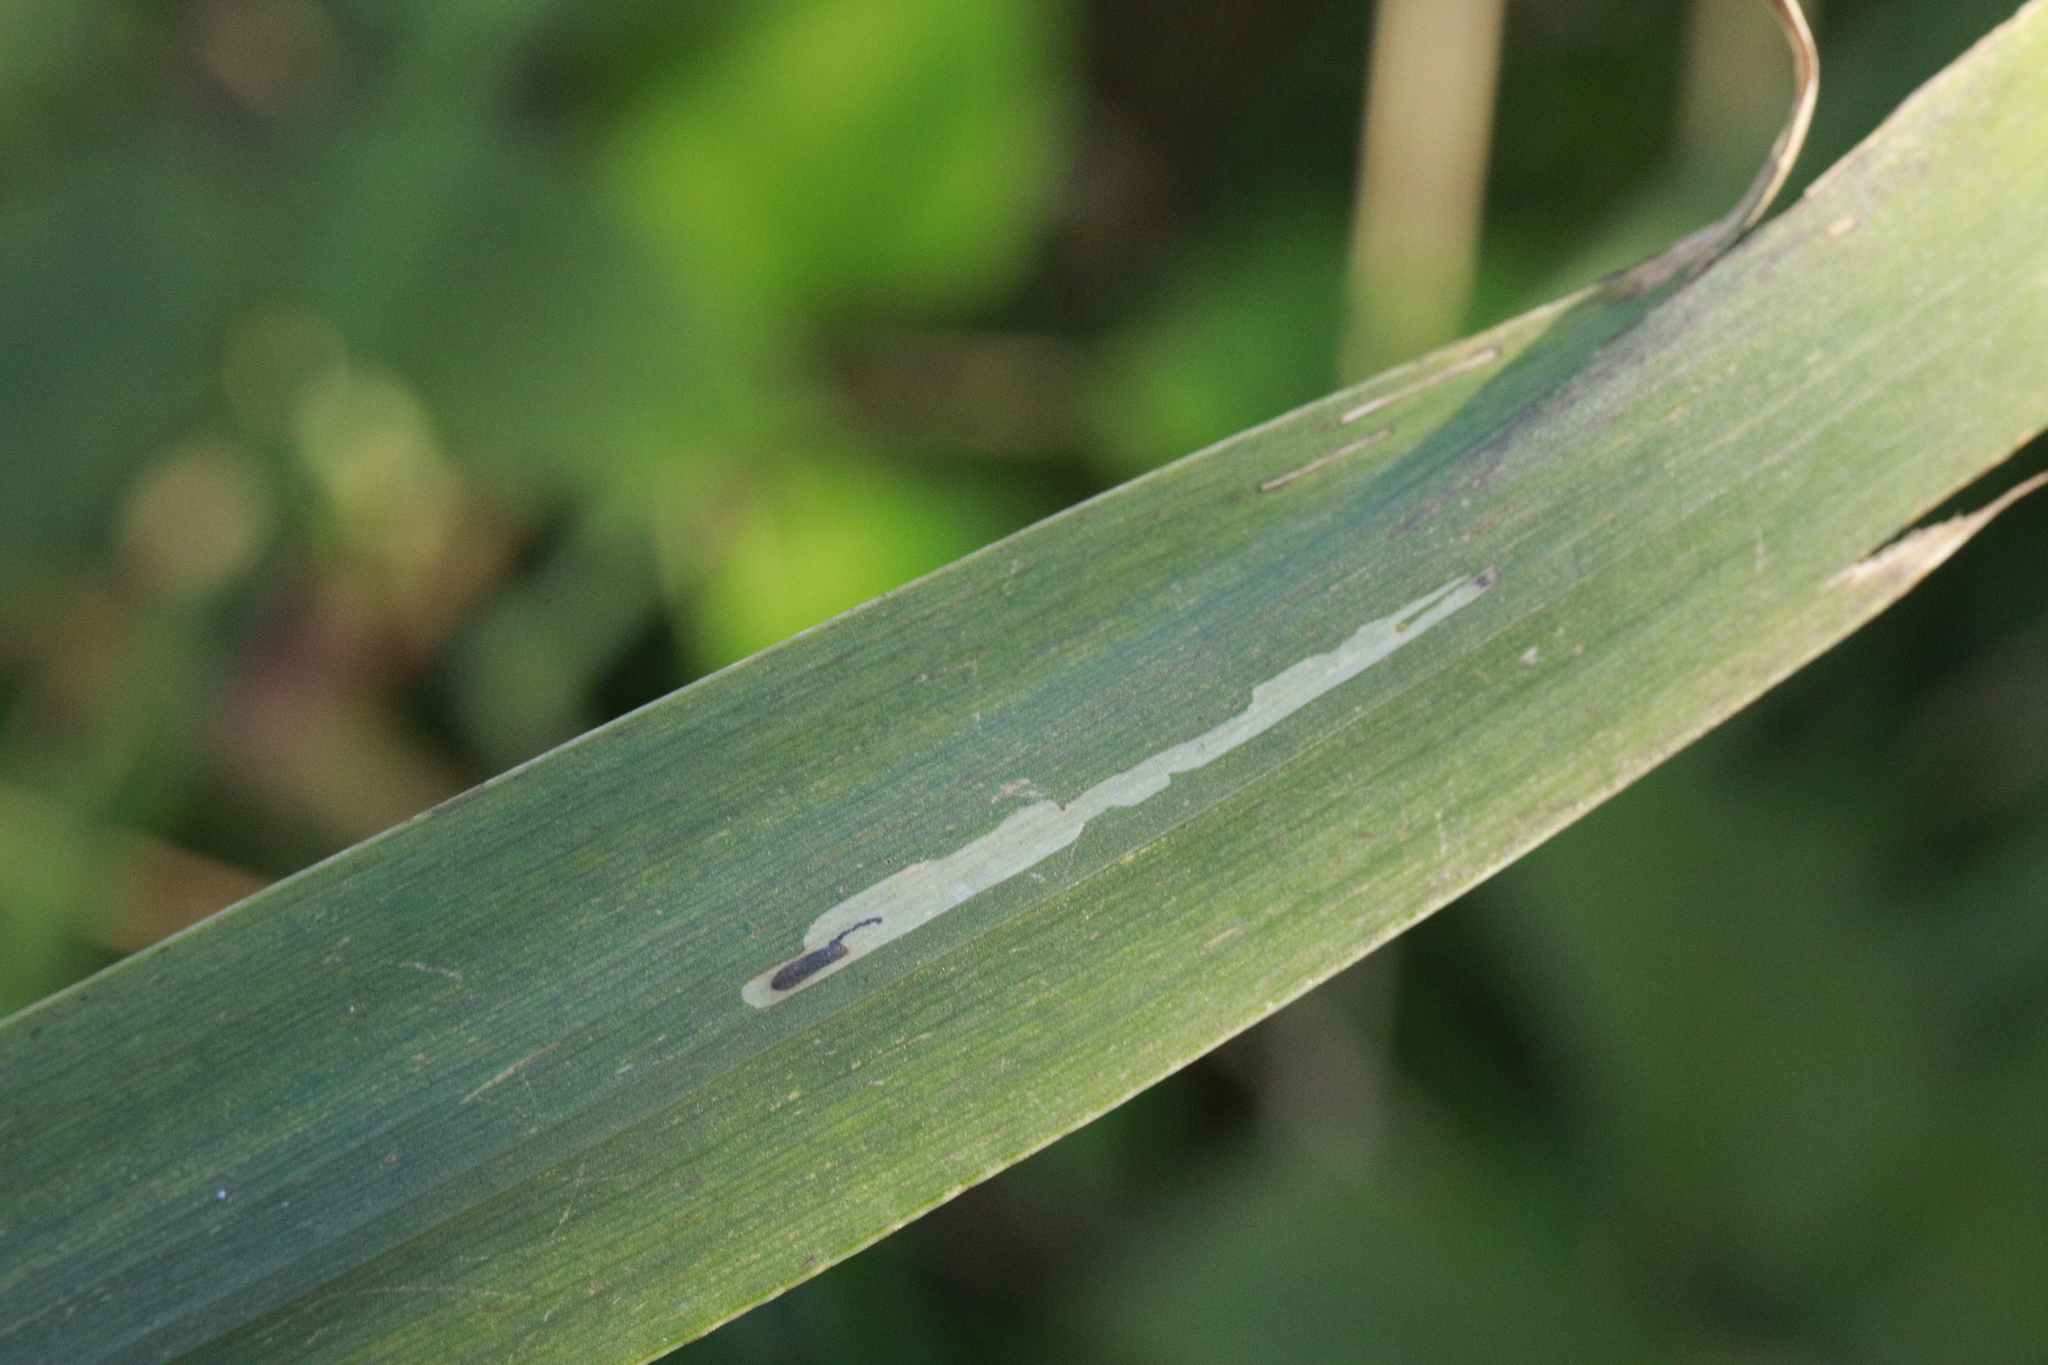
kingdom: Animalia
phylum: Arthropoda
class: Insecta
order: Diptera
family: Agromyzidae
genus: Cerodontha
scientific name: Cerodontha ircos
